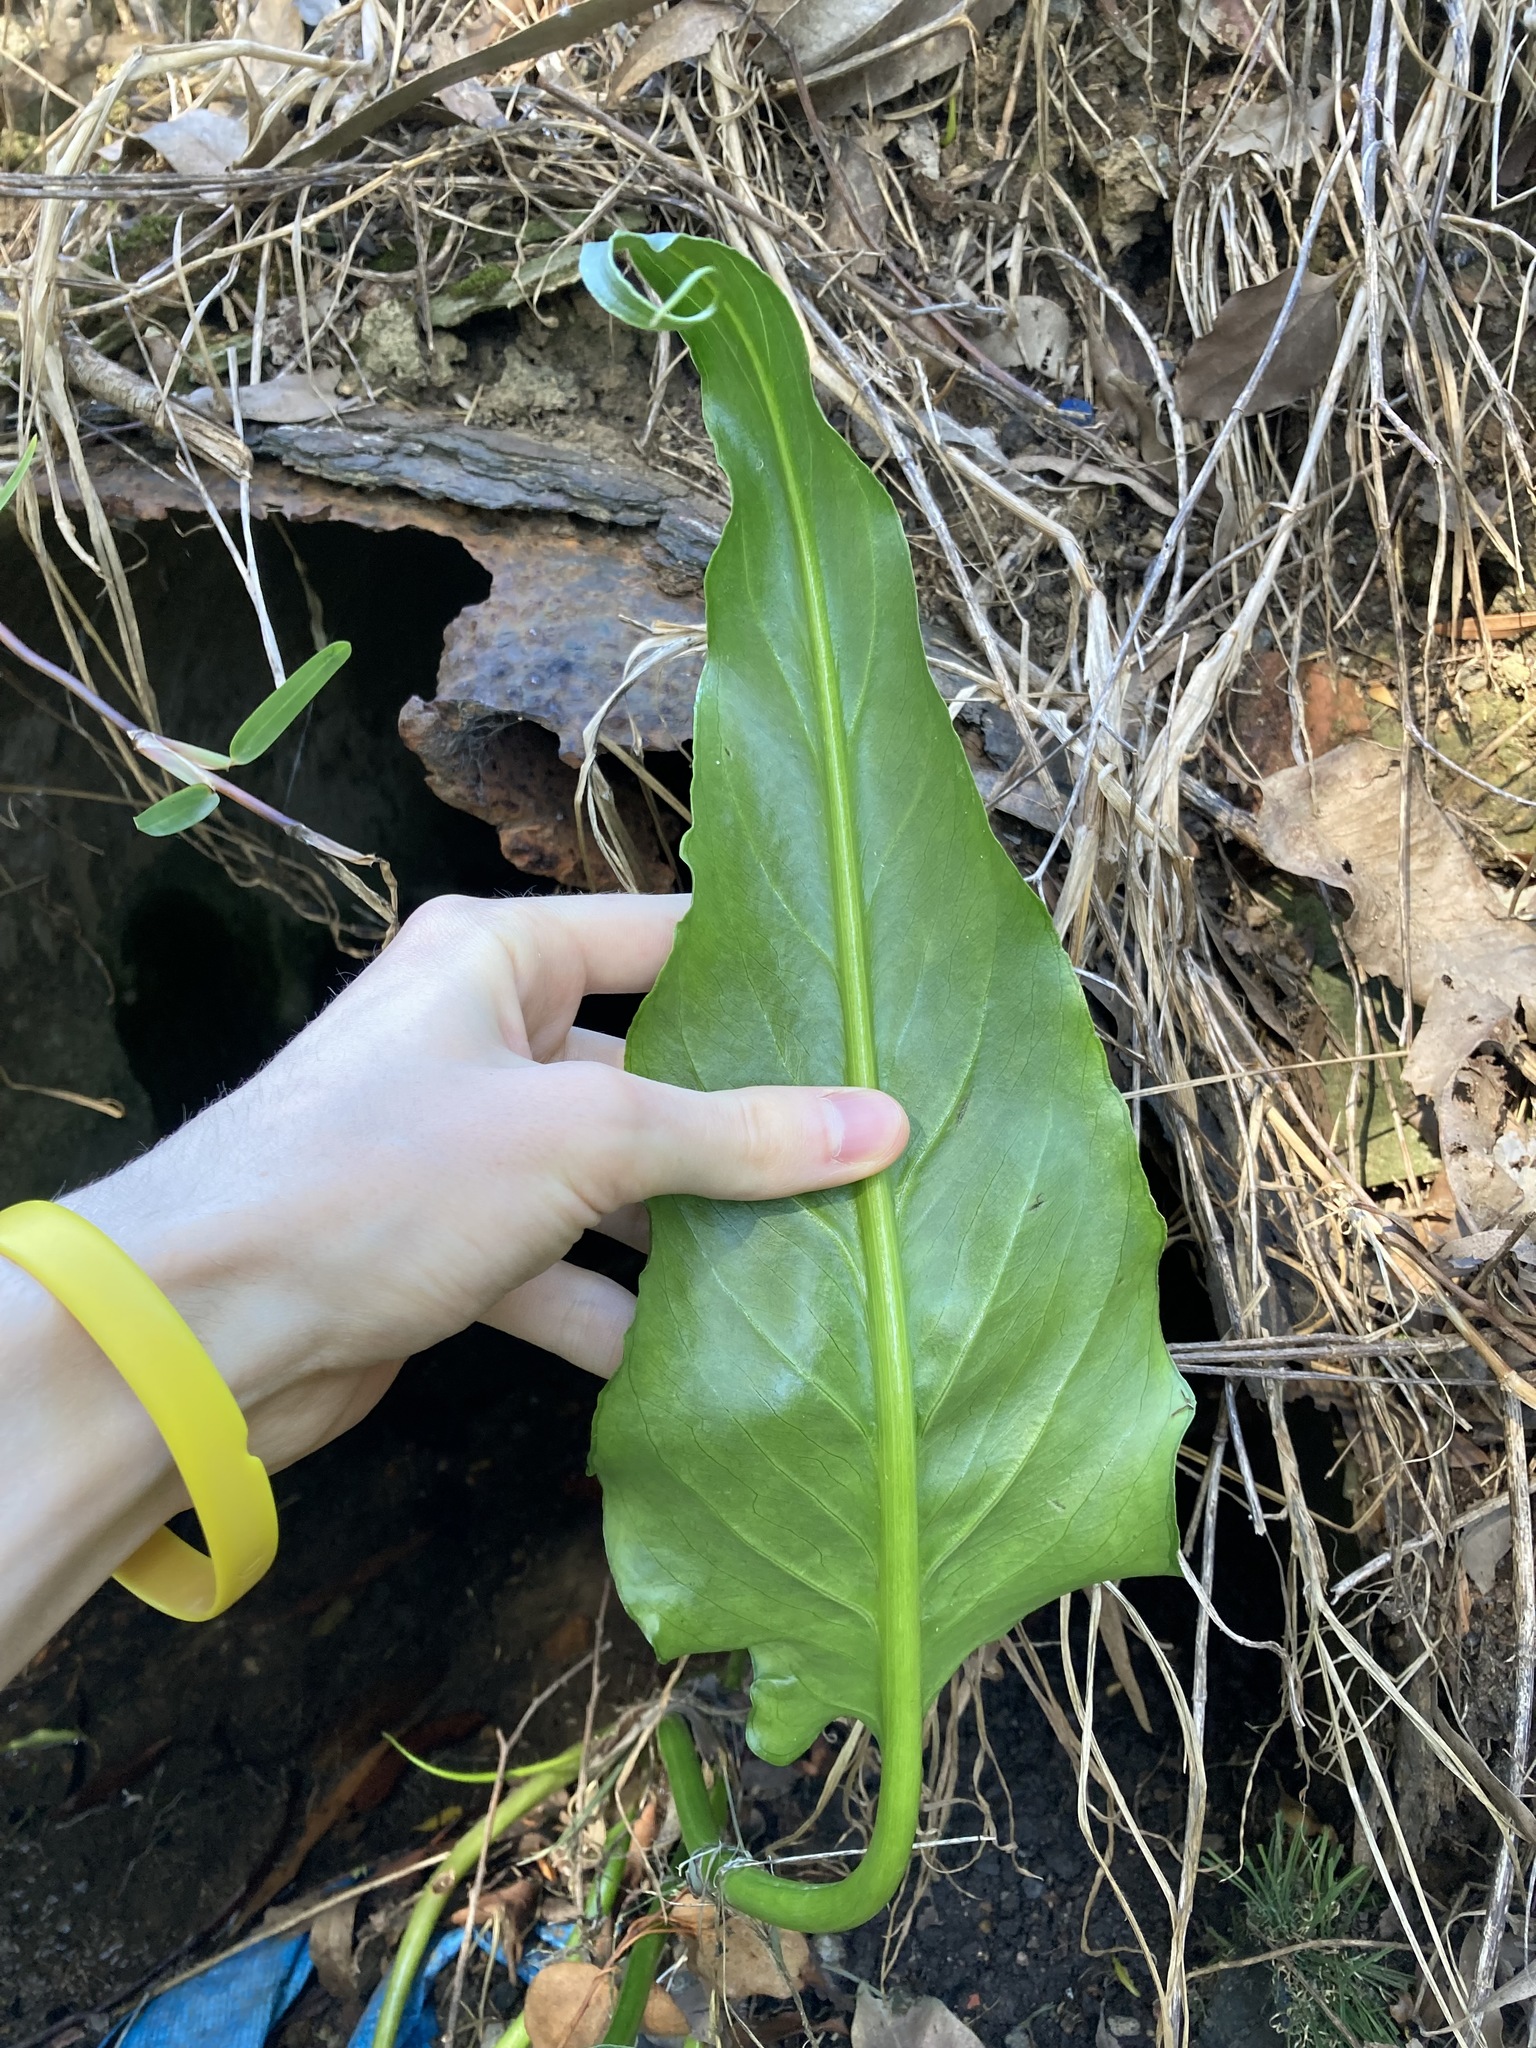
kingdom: Plantae
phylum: Tracheophyta
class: Liliopsida
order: Alismatales
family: Araceae
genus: Zantedeschia
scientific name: Zantedeschia aethiopica
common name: Altar-lily
